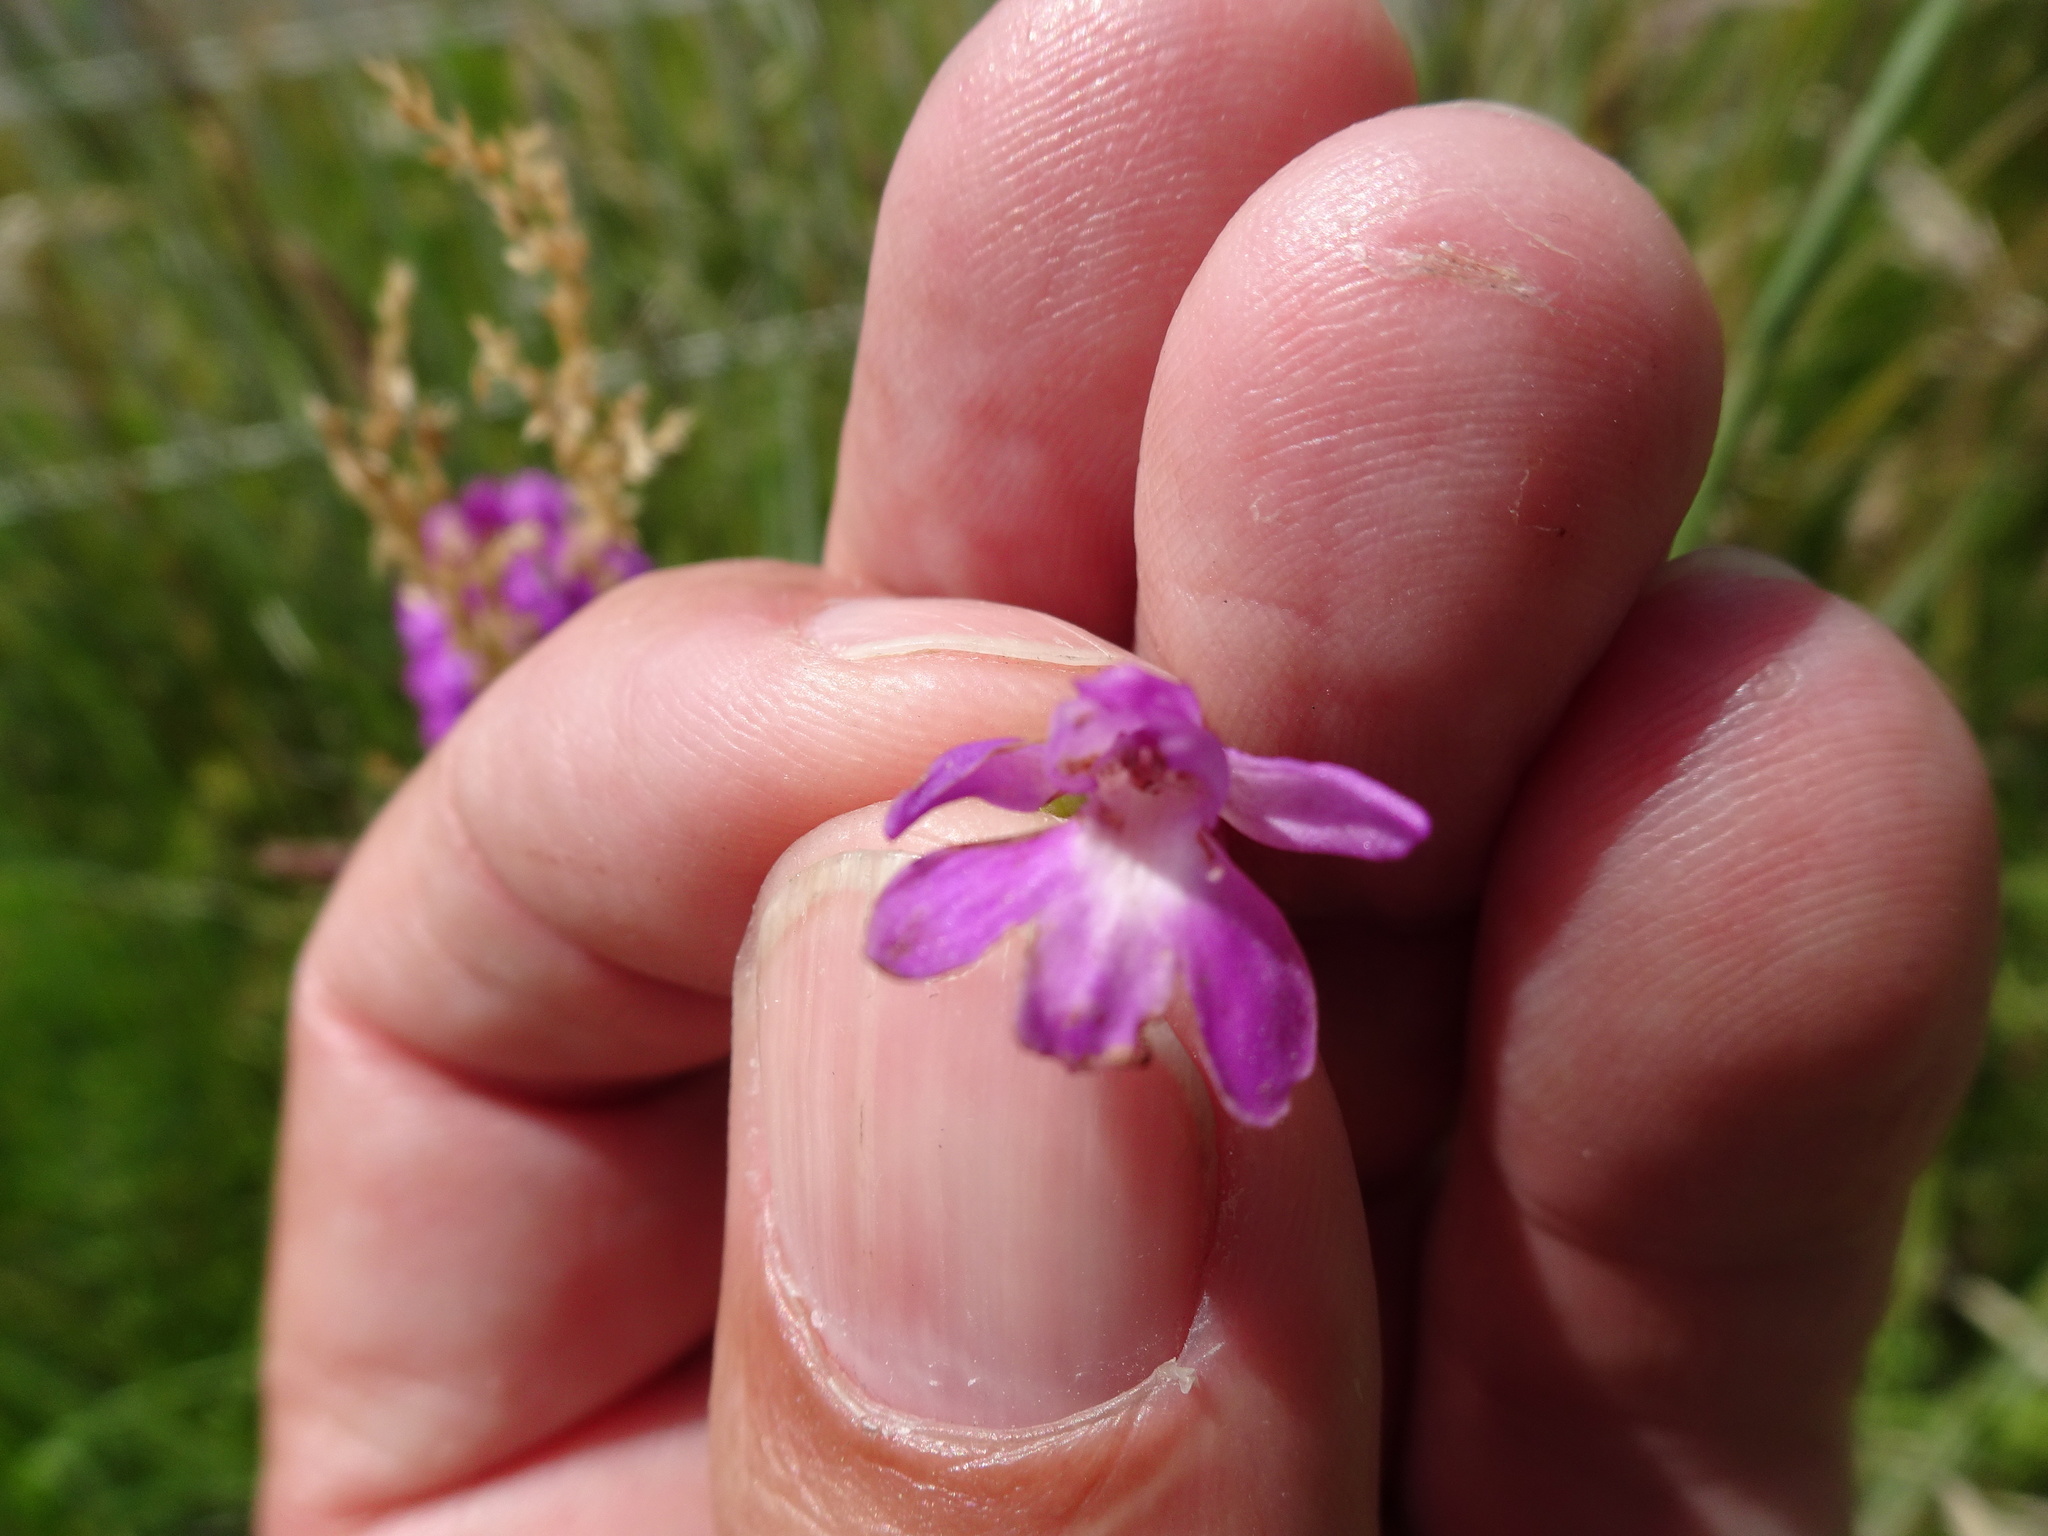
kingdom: Plantae
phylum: Tracheophyta
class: Liliopsida
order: Asparagales
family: Orchidaceae
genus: Anacamptis
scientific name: Anacamptis pyramidalis
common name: Pyramidal orchid
